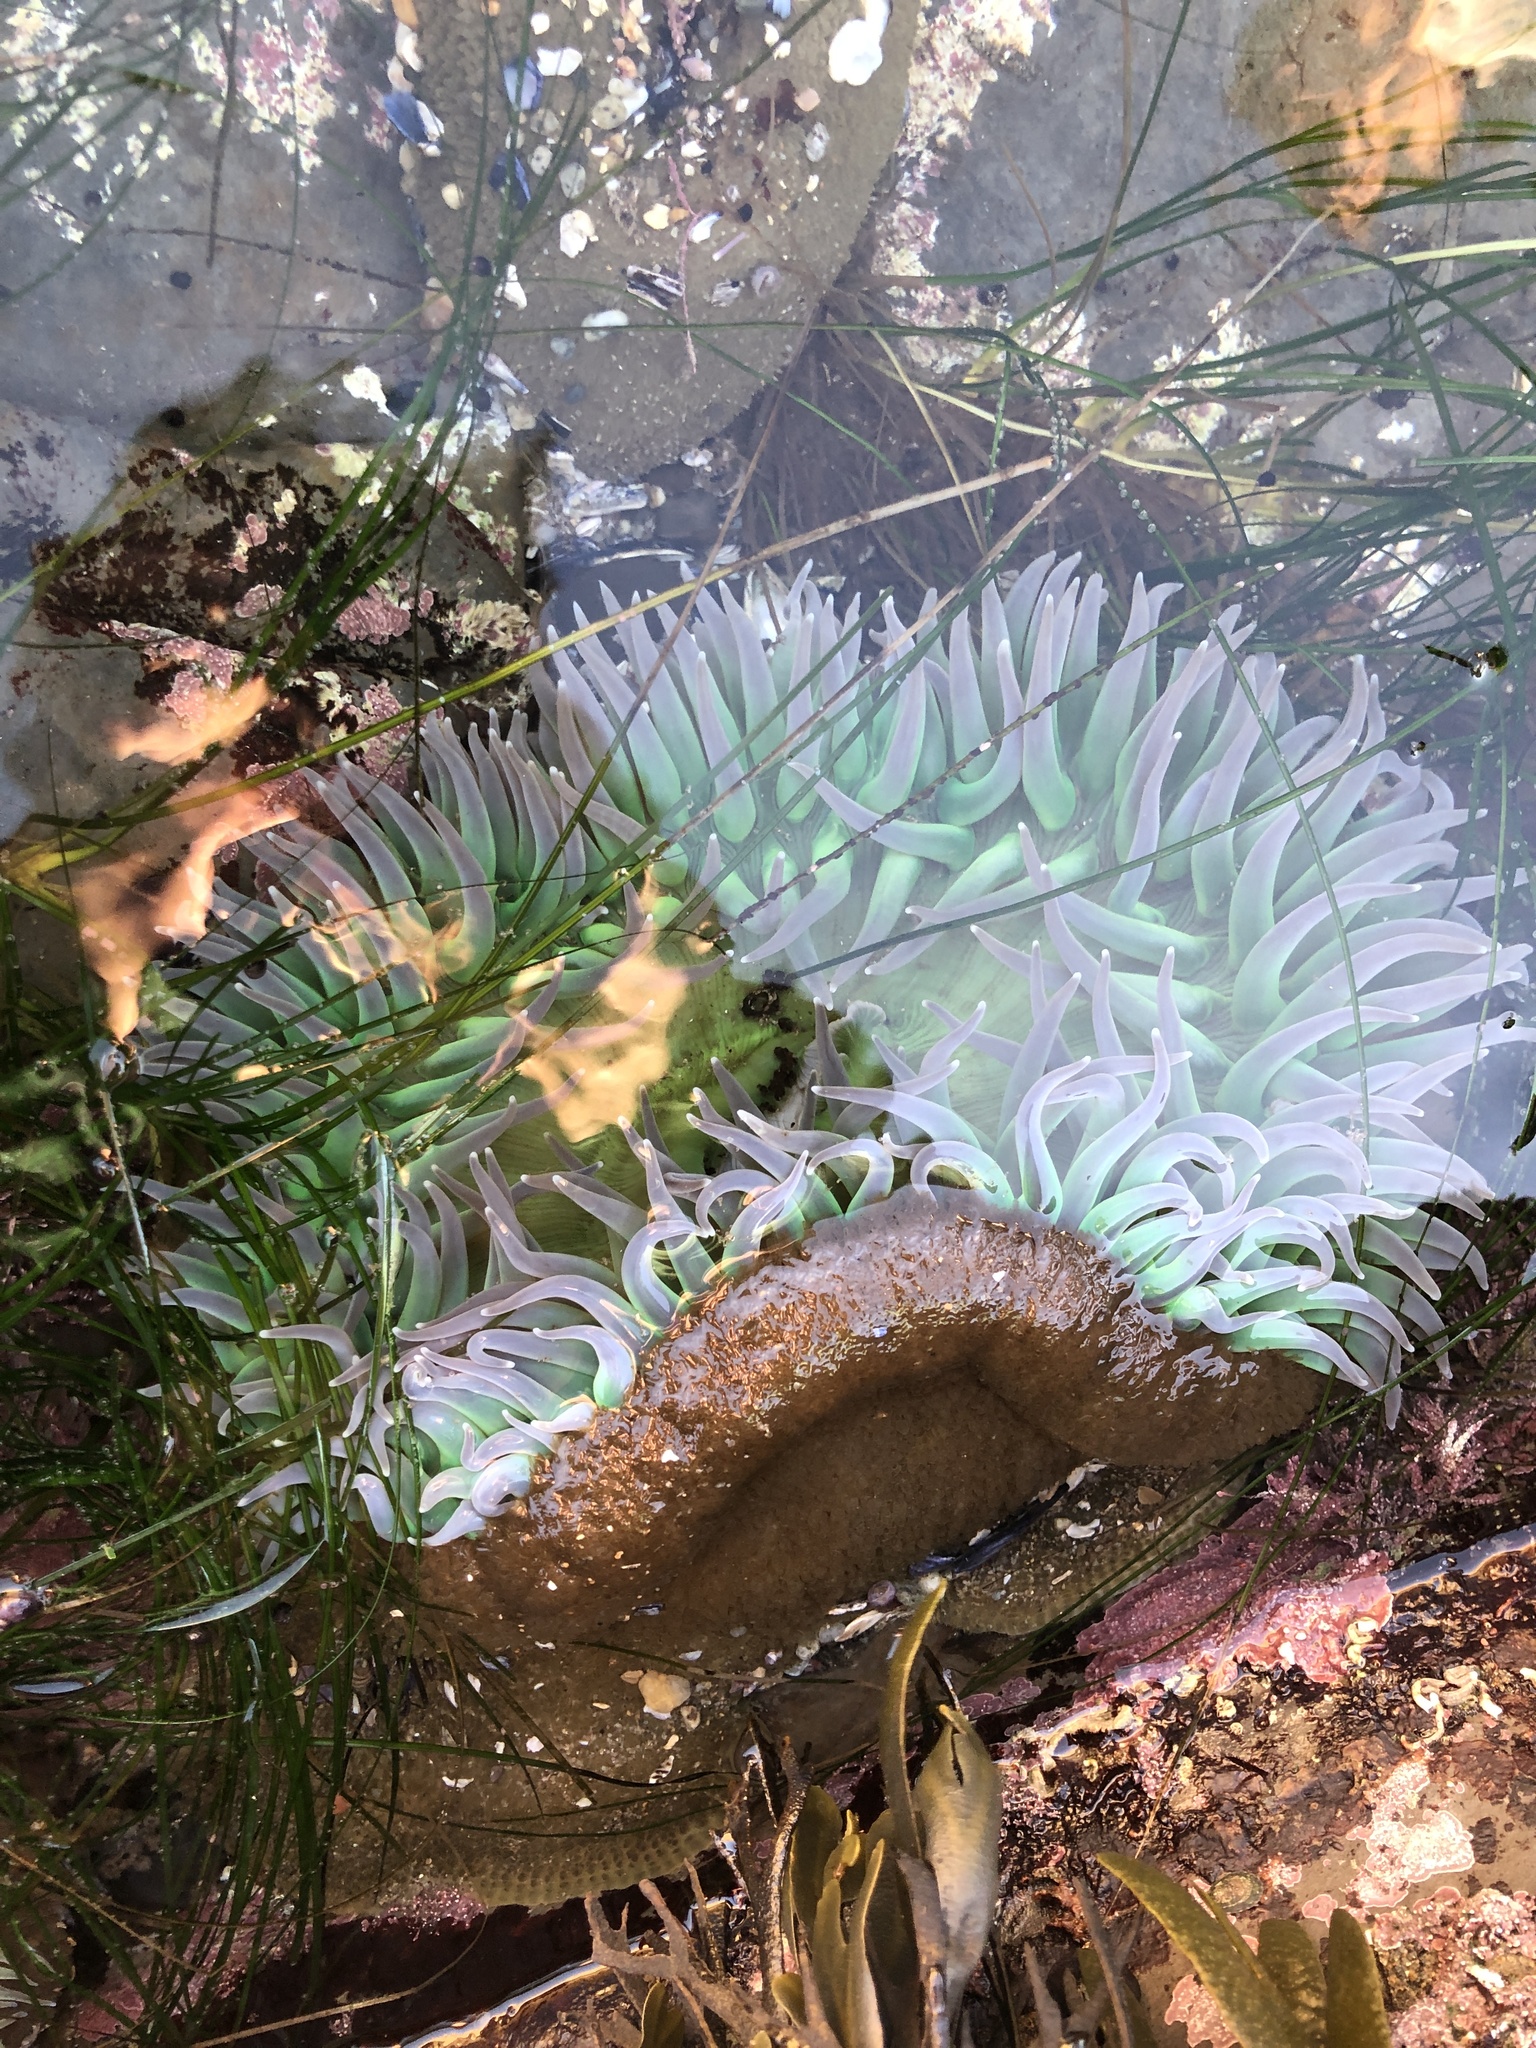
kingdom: Animalia
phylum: Cnidaria
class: Anthozoa
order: Actiniaria
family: Actiniidae
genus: Anthopleura
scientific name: Anthopleura xanthogrammica
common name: Giant green anemone
